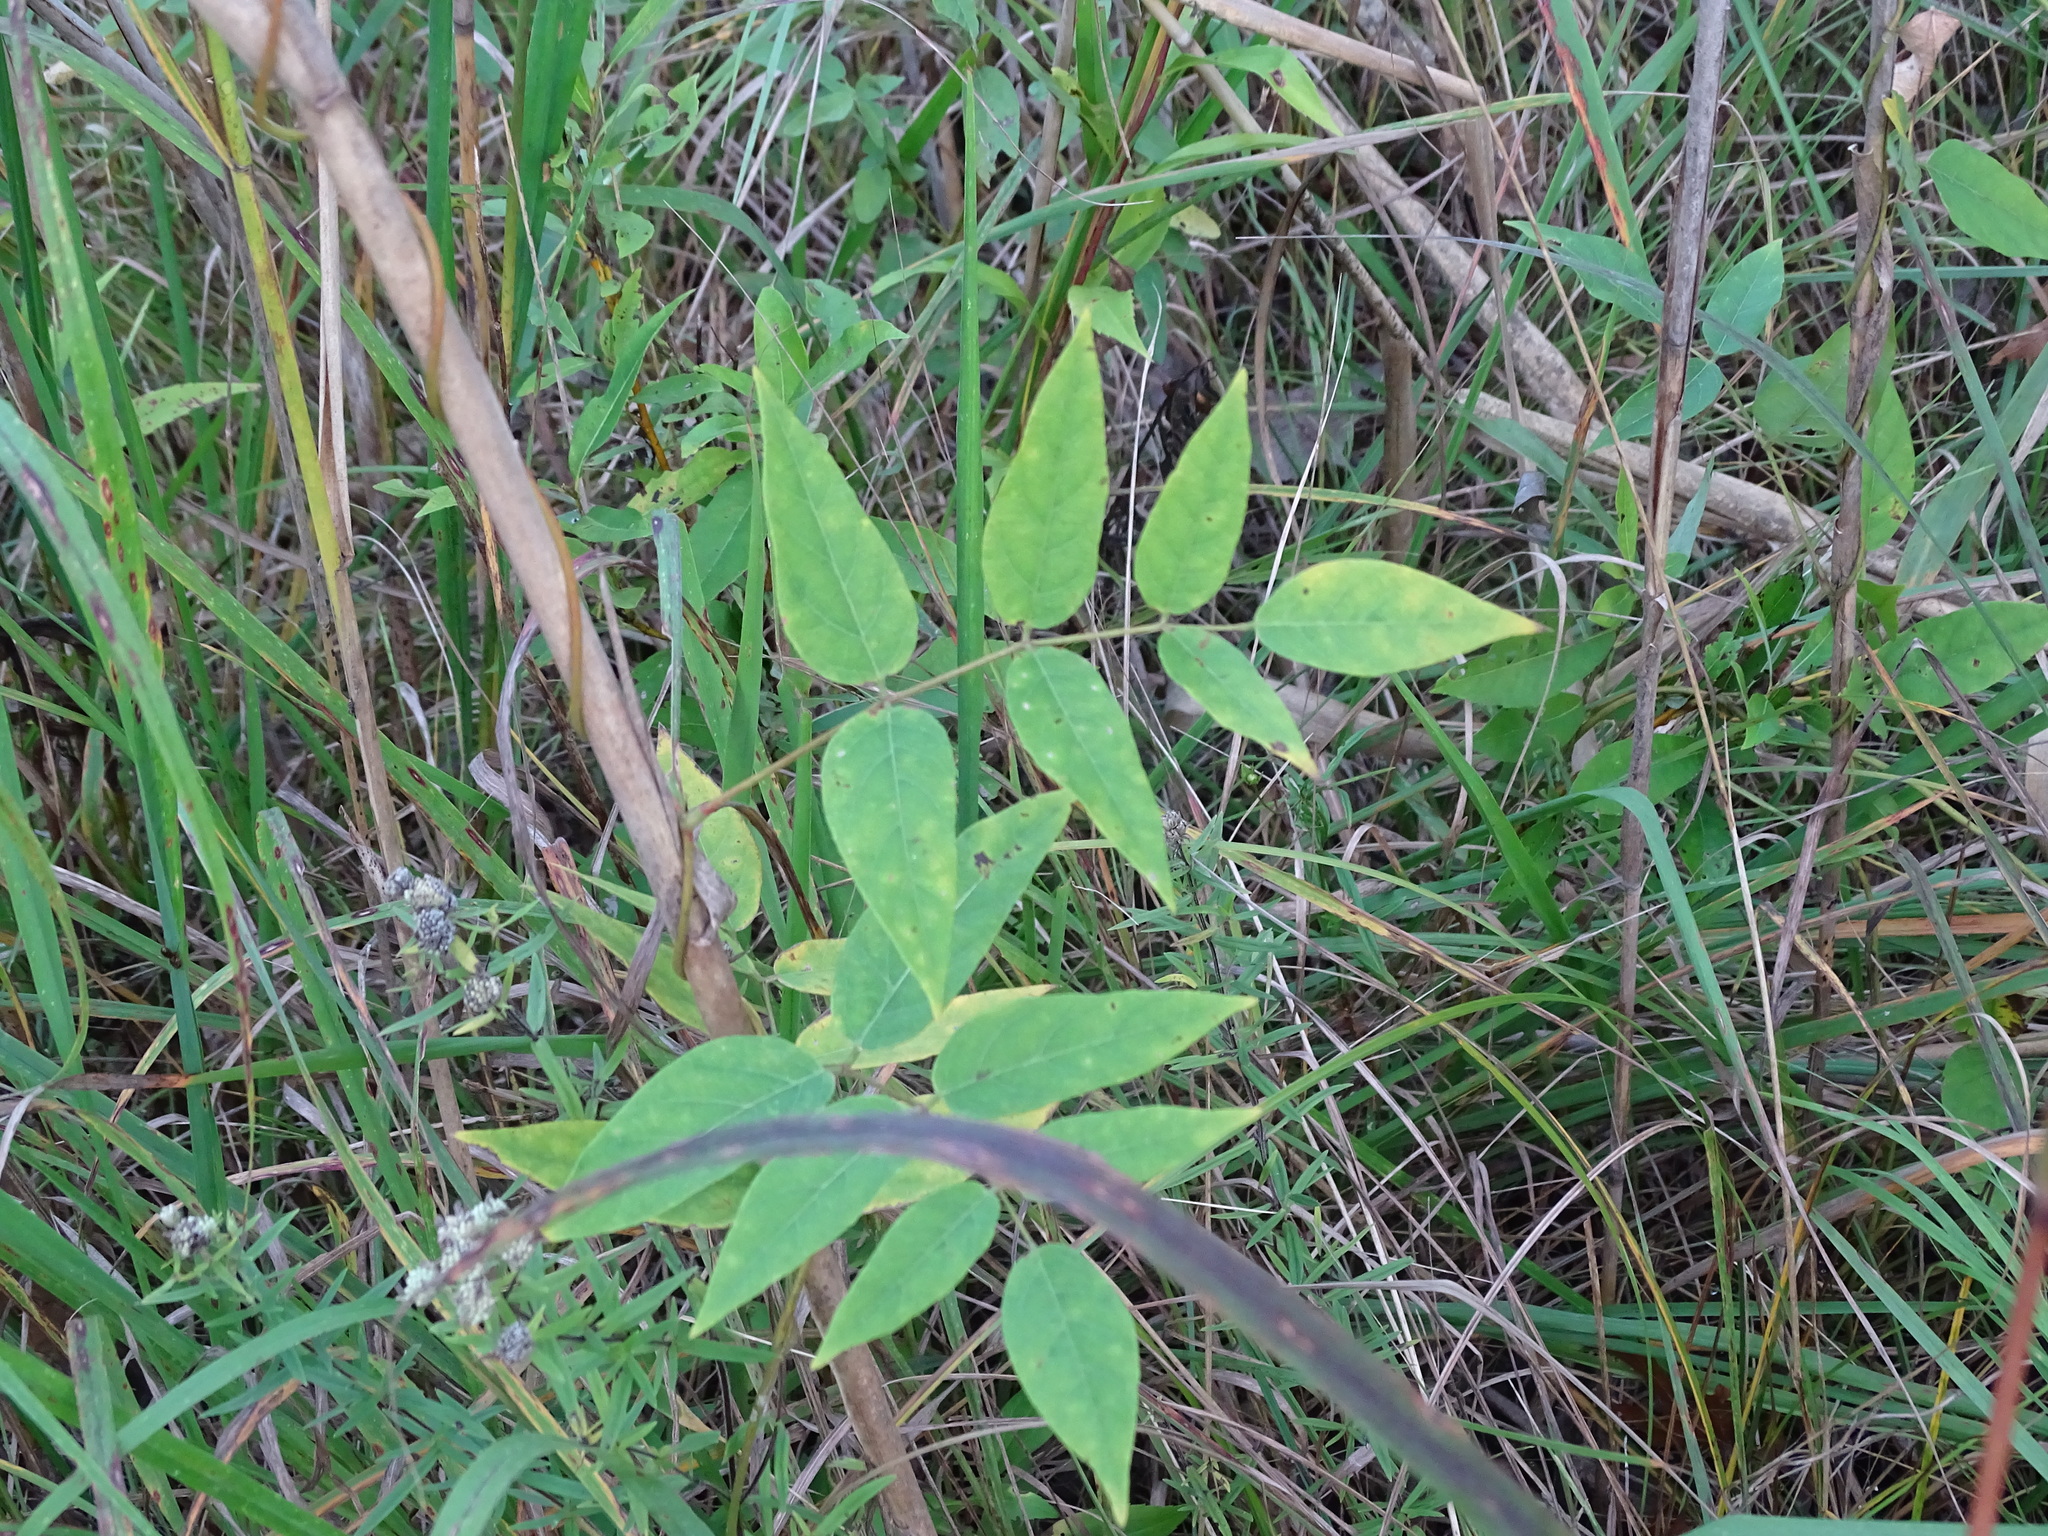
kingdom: Plantae
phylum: Tracheophyta
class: Magnoliopsida
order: Fabales
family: Fabaceae
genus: Apios
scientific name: Apios americana
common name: American potato-bean
